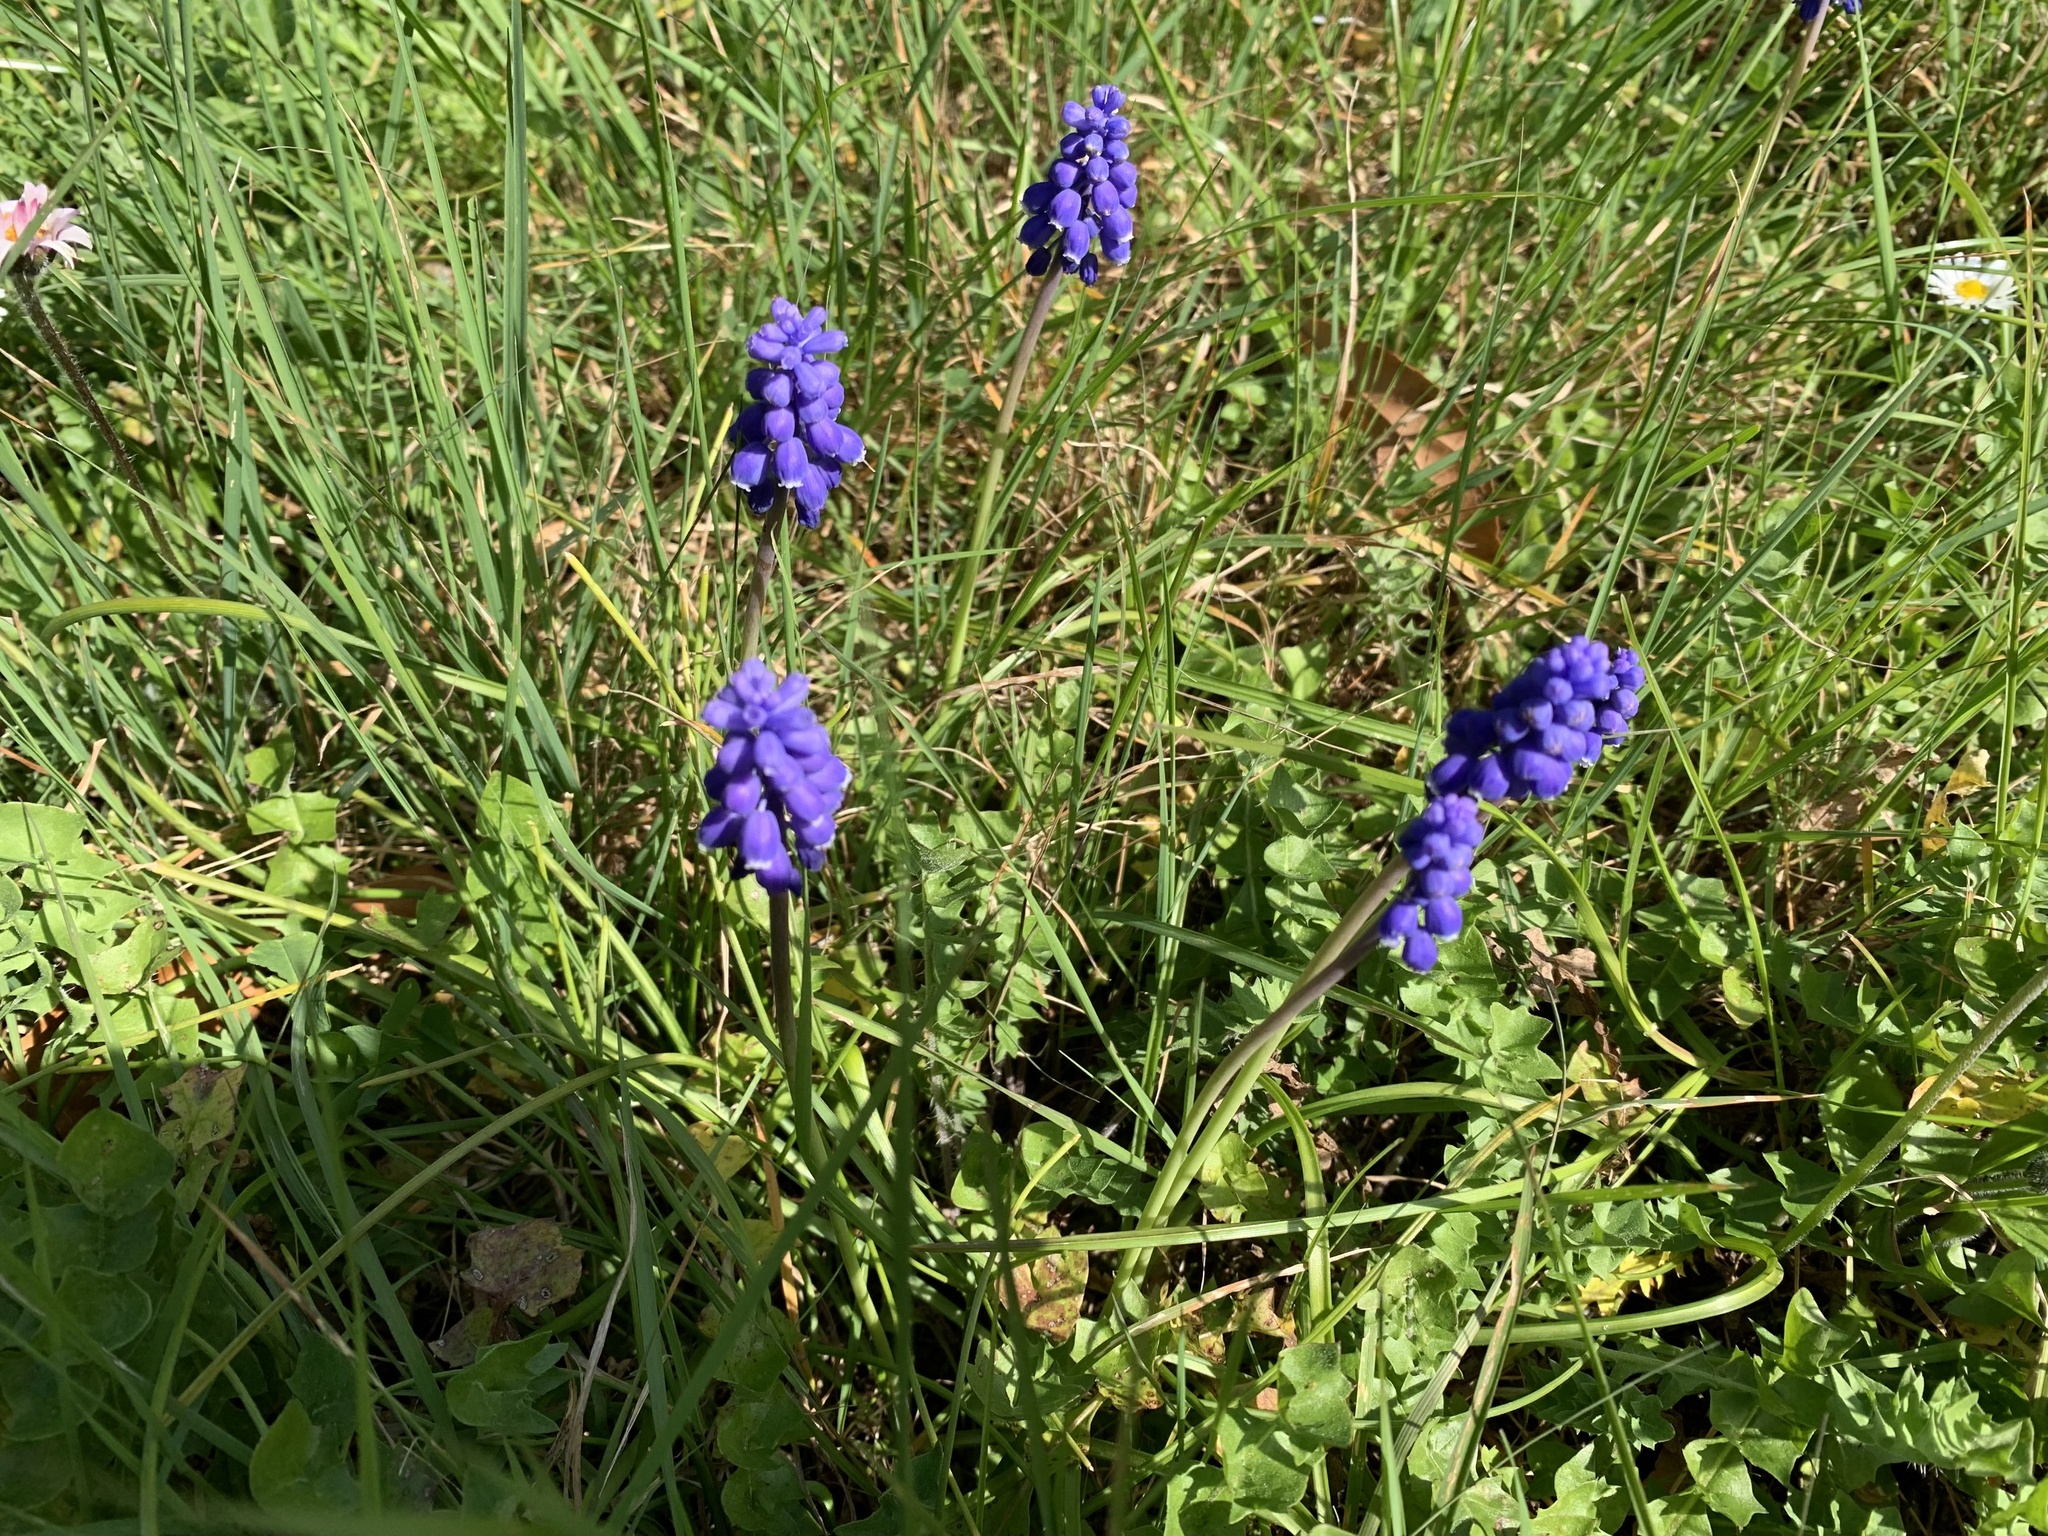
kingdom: Plantae
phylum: Tracheophyta
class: Liliopsida
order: Asparagales
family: Asparagaceae
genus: Muscari
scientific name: Muscari armeniacum
